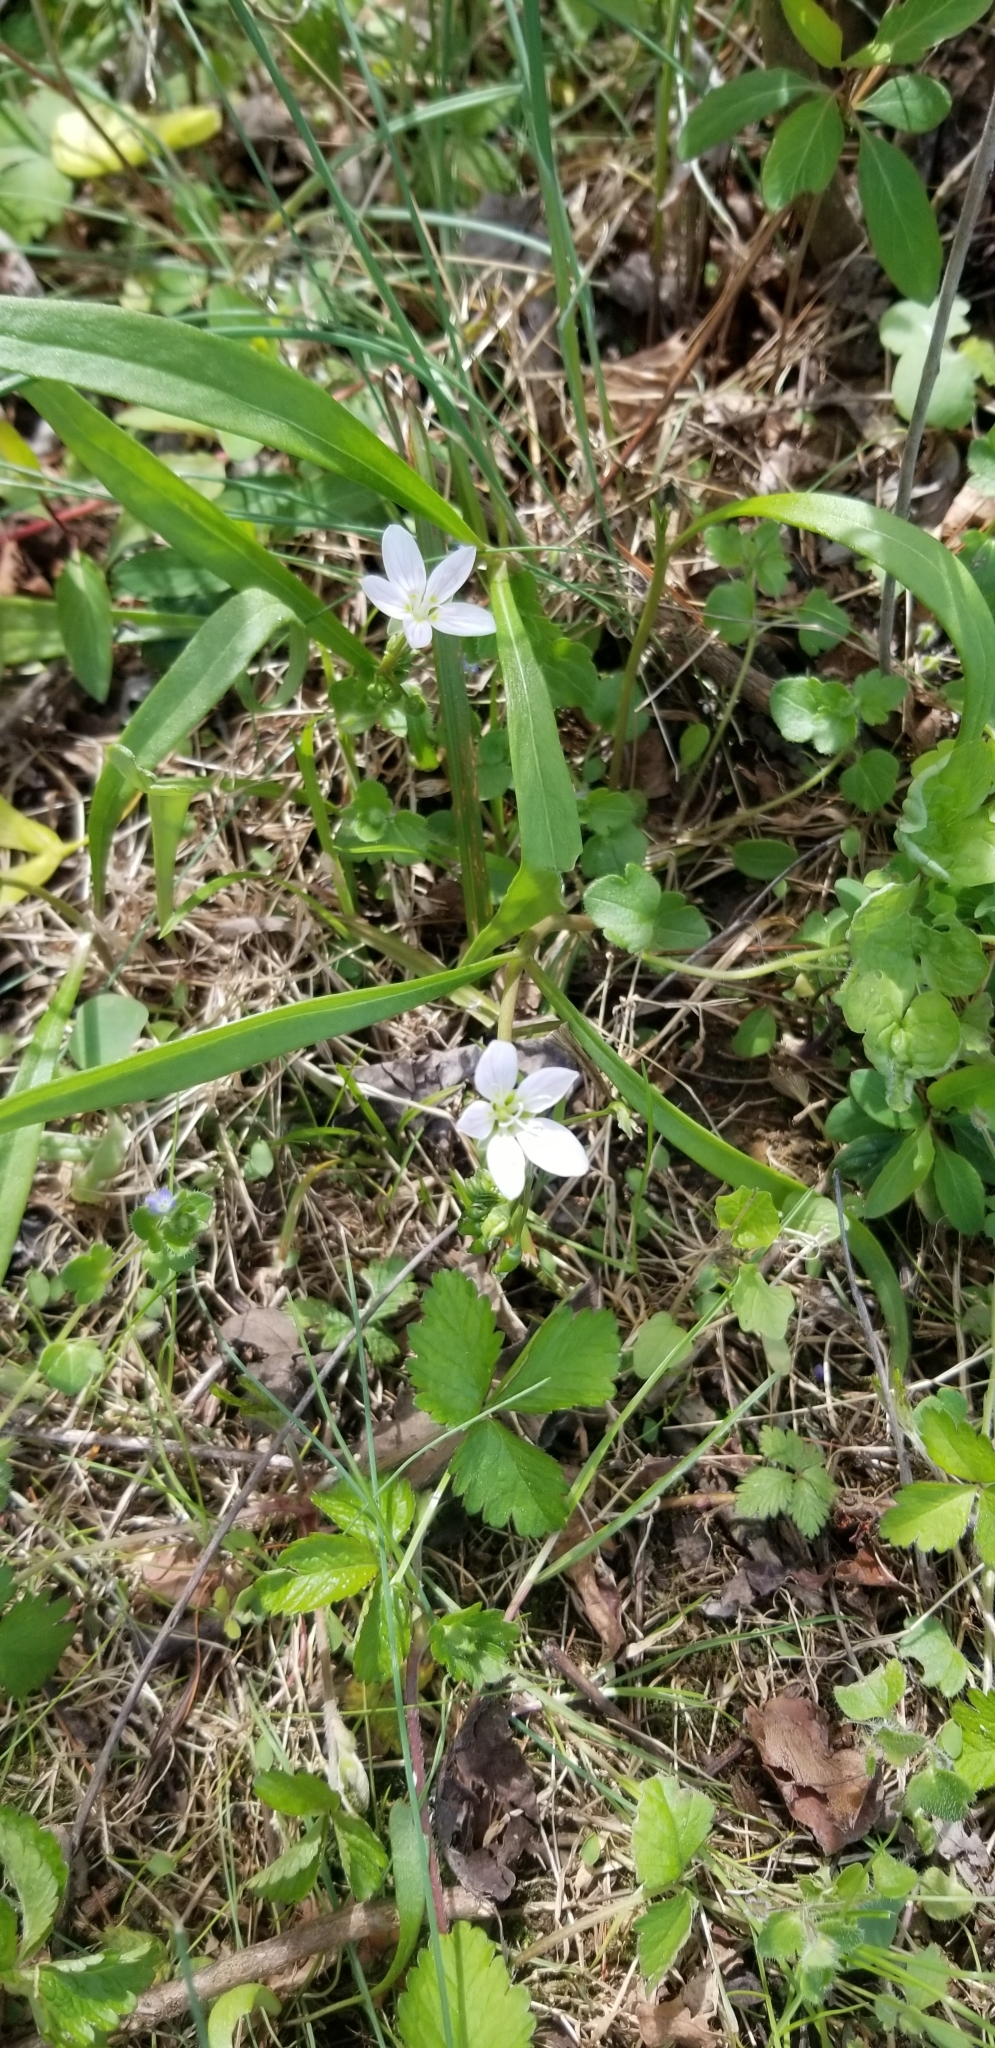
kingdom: Plantae
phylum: Tracheophyta
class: Magnoliopsida
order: Caryophyllales
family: Montiaceae
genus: Claytonia
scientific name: Claytonia virginica
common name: Virginia springbeauty
